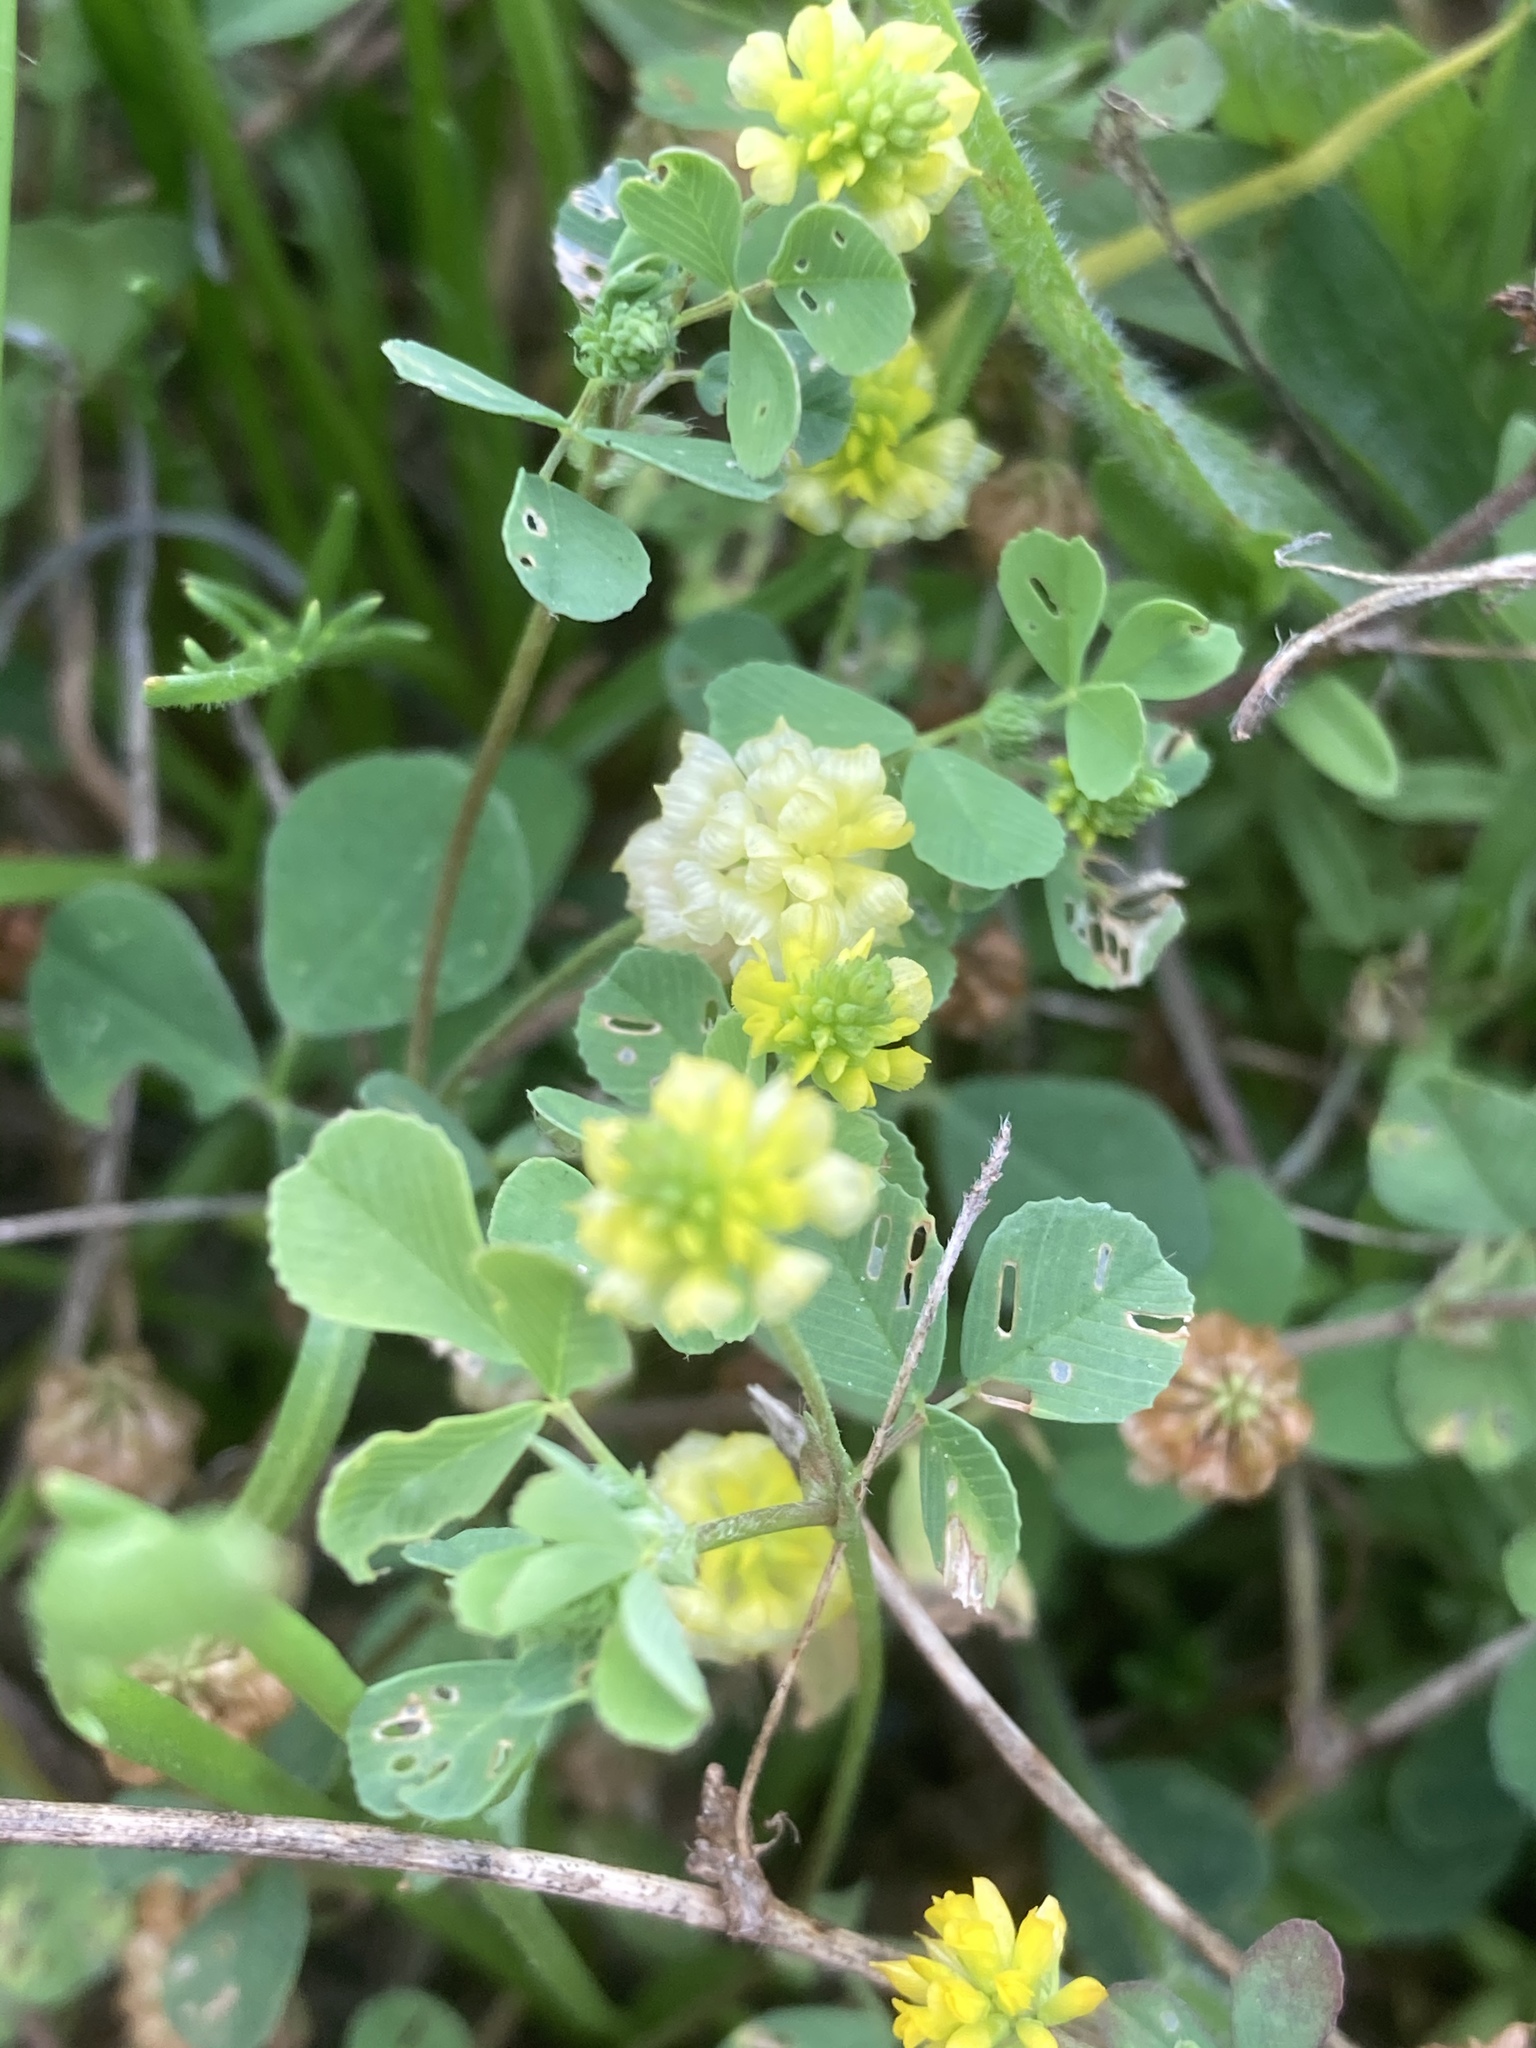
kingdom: Plantae
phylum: Tracheophyta
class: Magnoliopsida
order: Fabales
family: Fabaceae
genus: Trifolium
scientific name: Trifolium campestre
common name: Field clover
